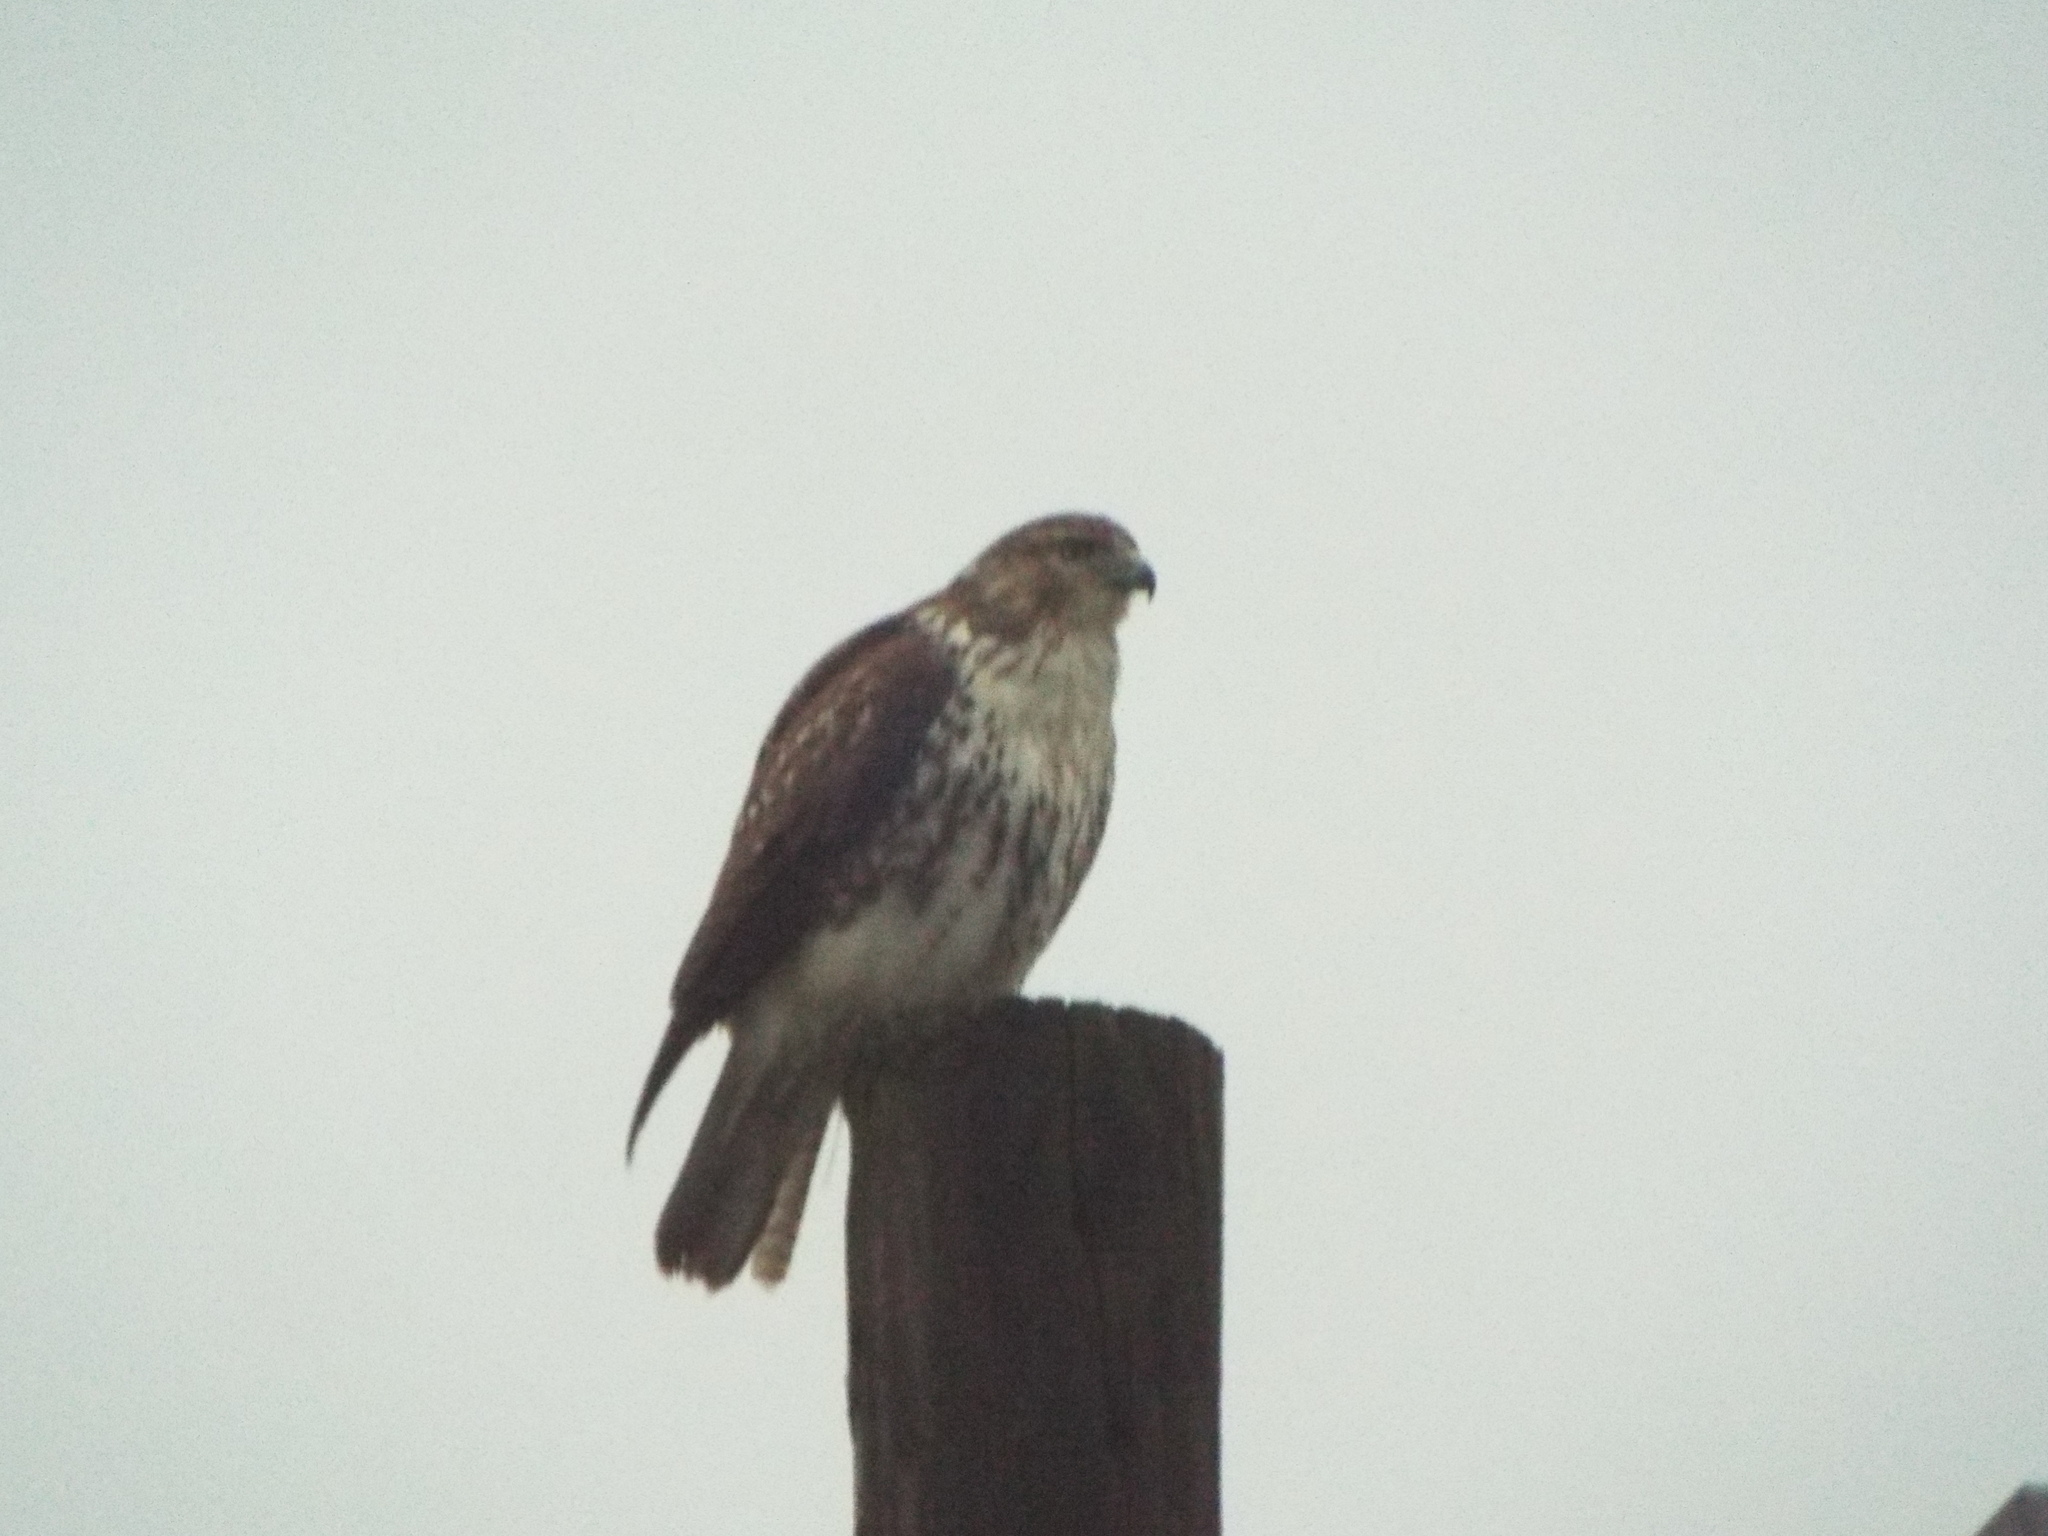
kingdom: Animalia
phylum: Chordata
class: Aves
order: Accipitriformes
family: Accipitridae
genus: Buteo
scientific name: Buteo jamaicensis
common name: Red-tailed hawk
